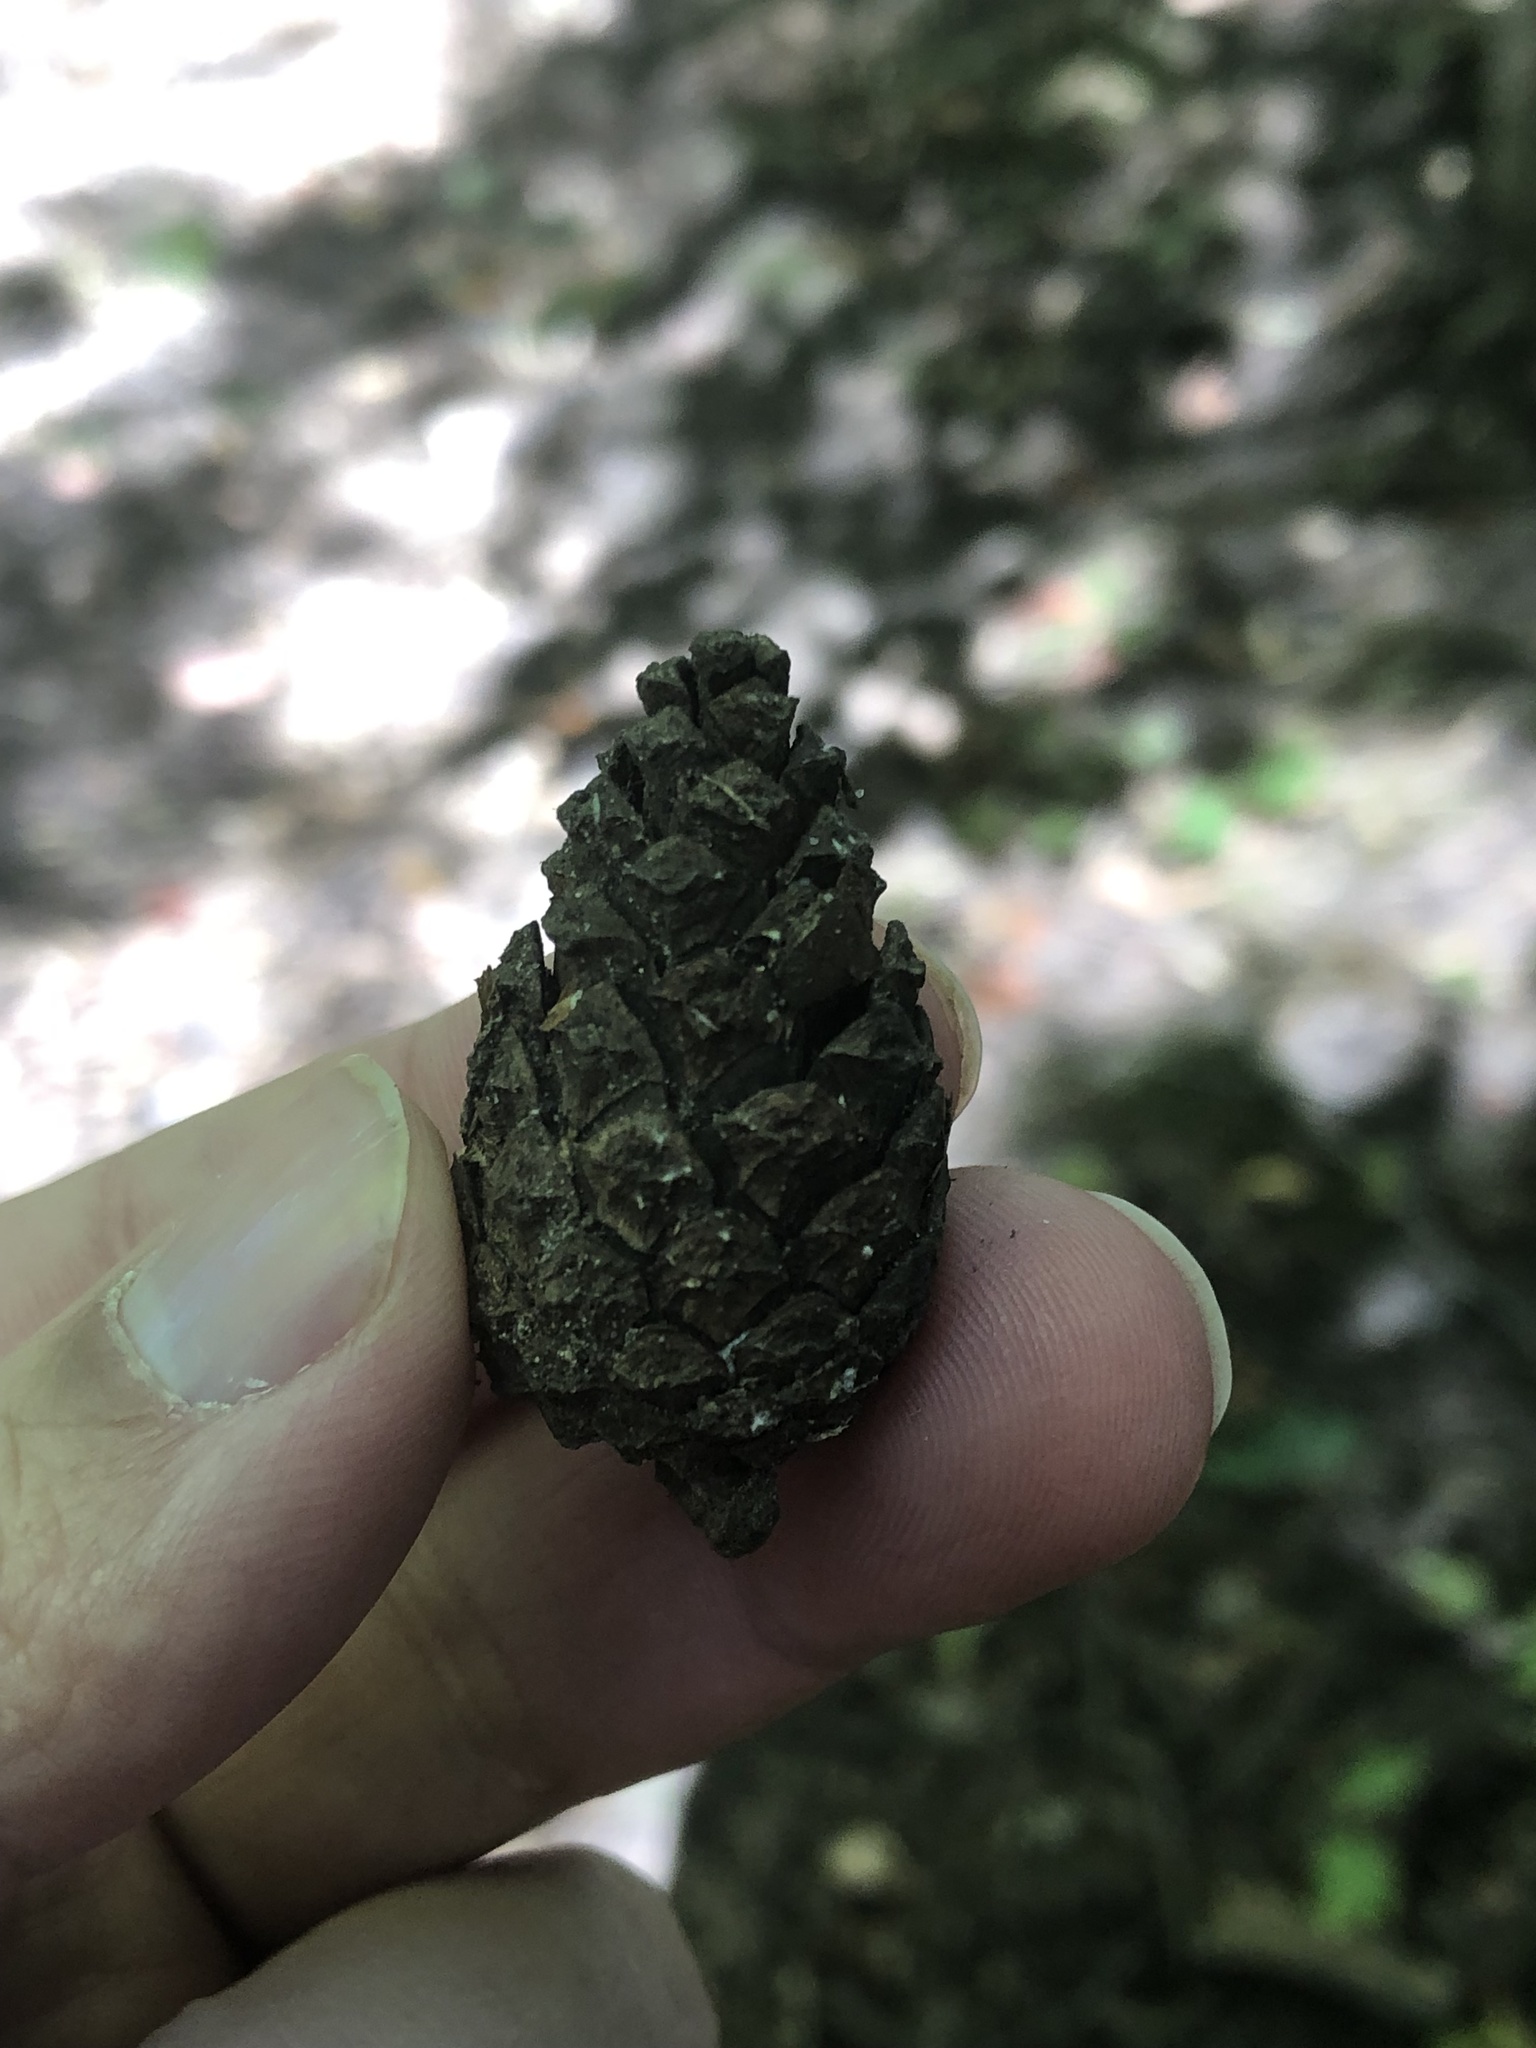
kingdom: Plantae
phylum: Tracheophyta
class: Pinopsida
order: Pinales
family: Pinaceae
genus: Pinus
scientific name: Pinus resinosa
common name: Norway pine
